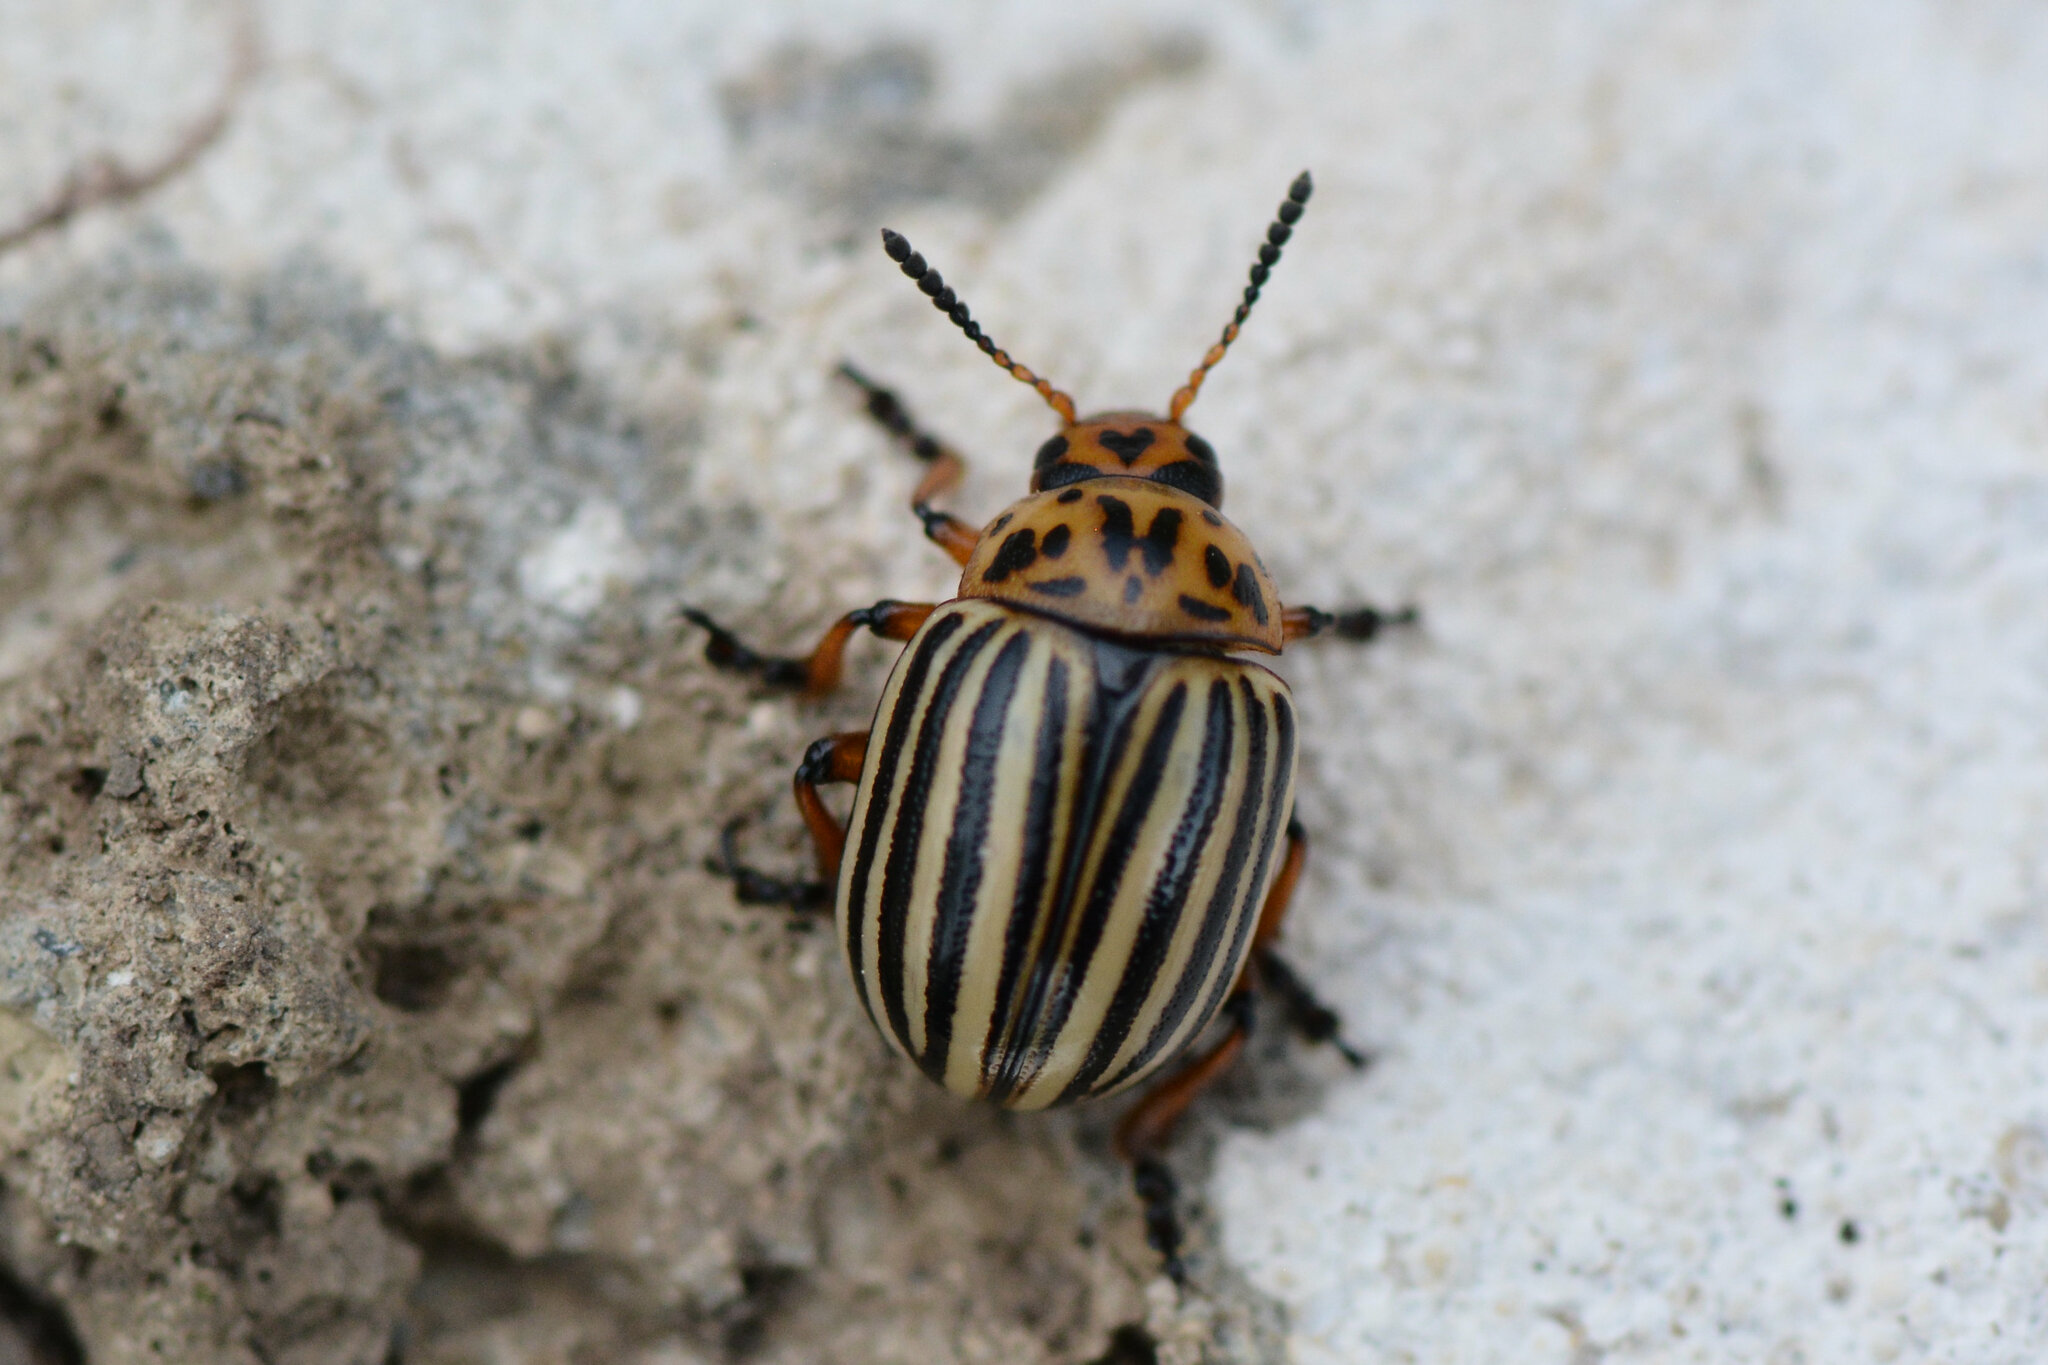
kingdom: Animalia
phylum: Arthropoda
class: Insecta
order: Coleoptera
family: Chrysomelidae
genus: Leptinotarsa
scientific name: Leptinotarsa decemlineata
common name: Colorado potato beetle
